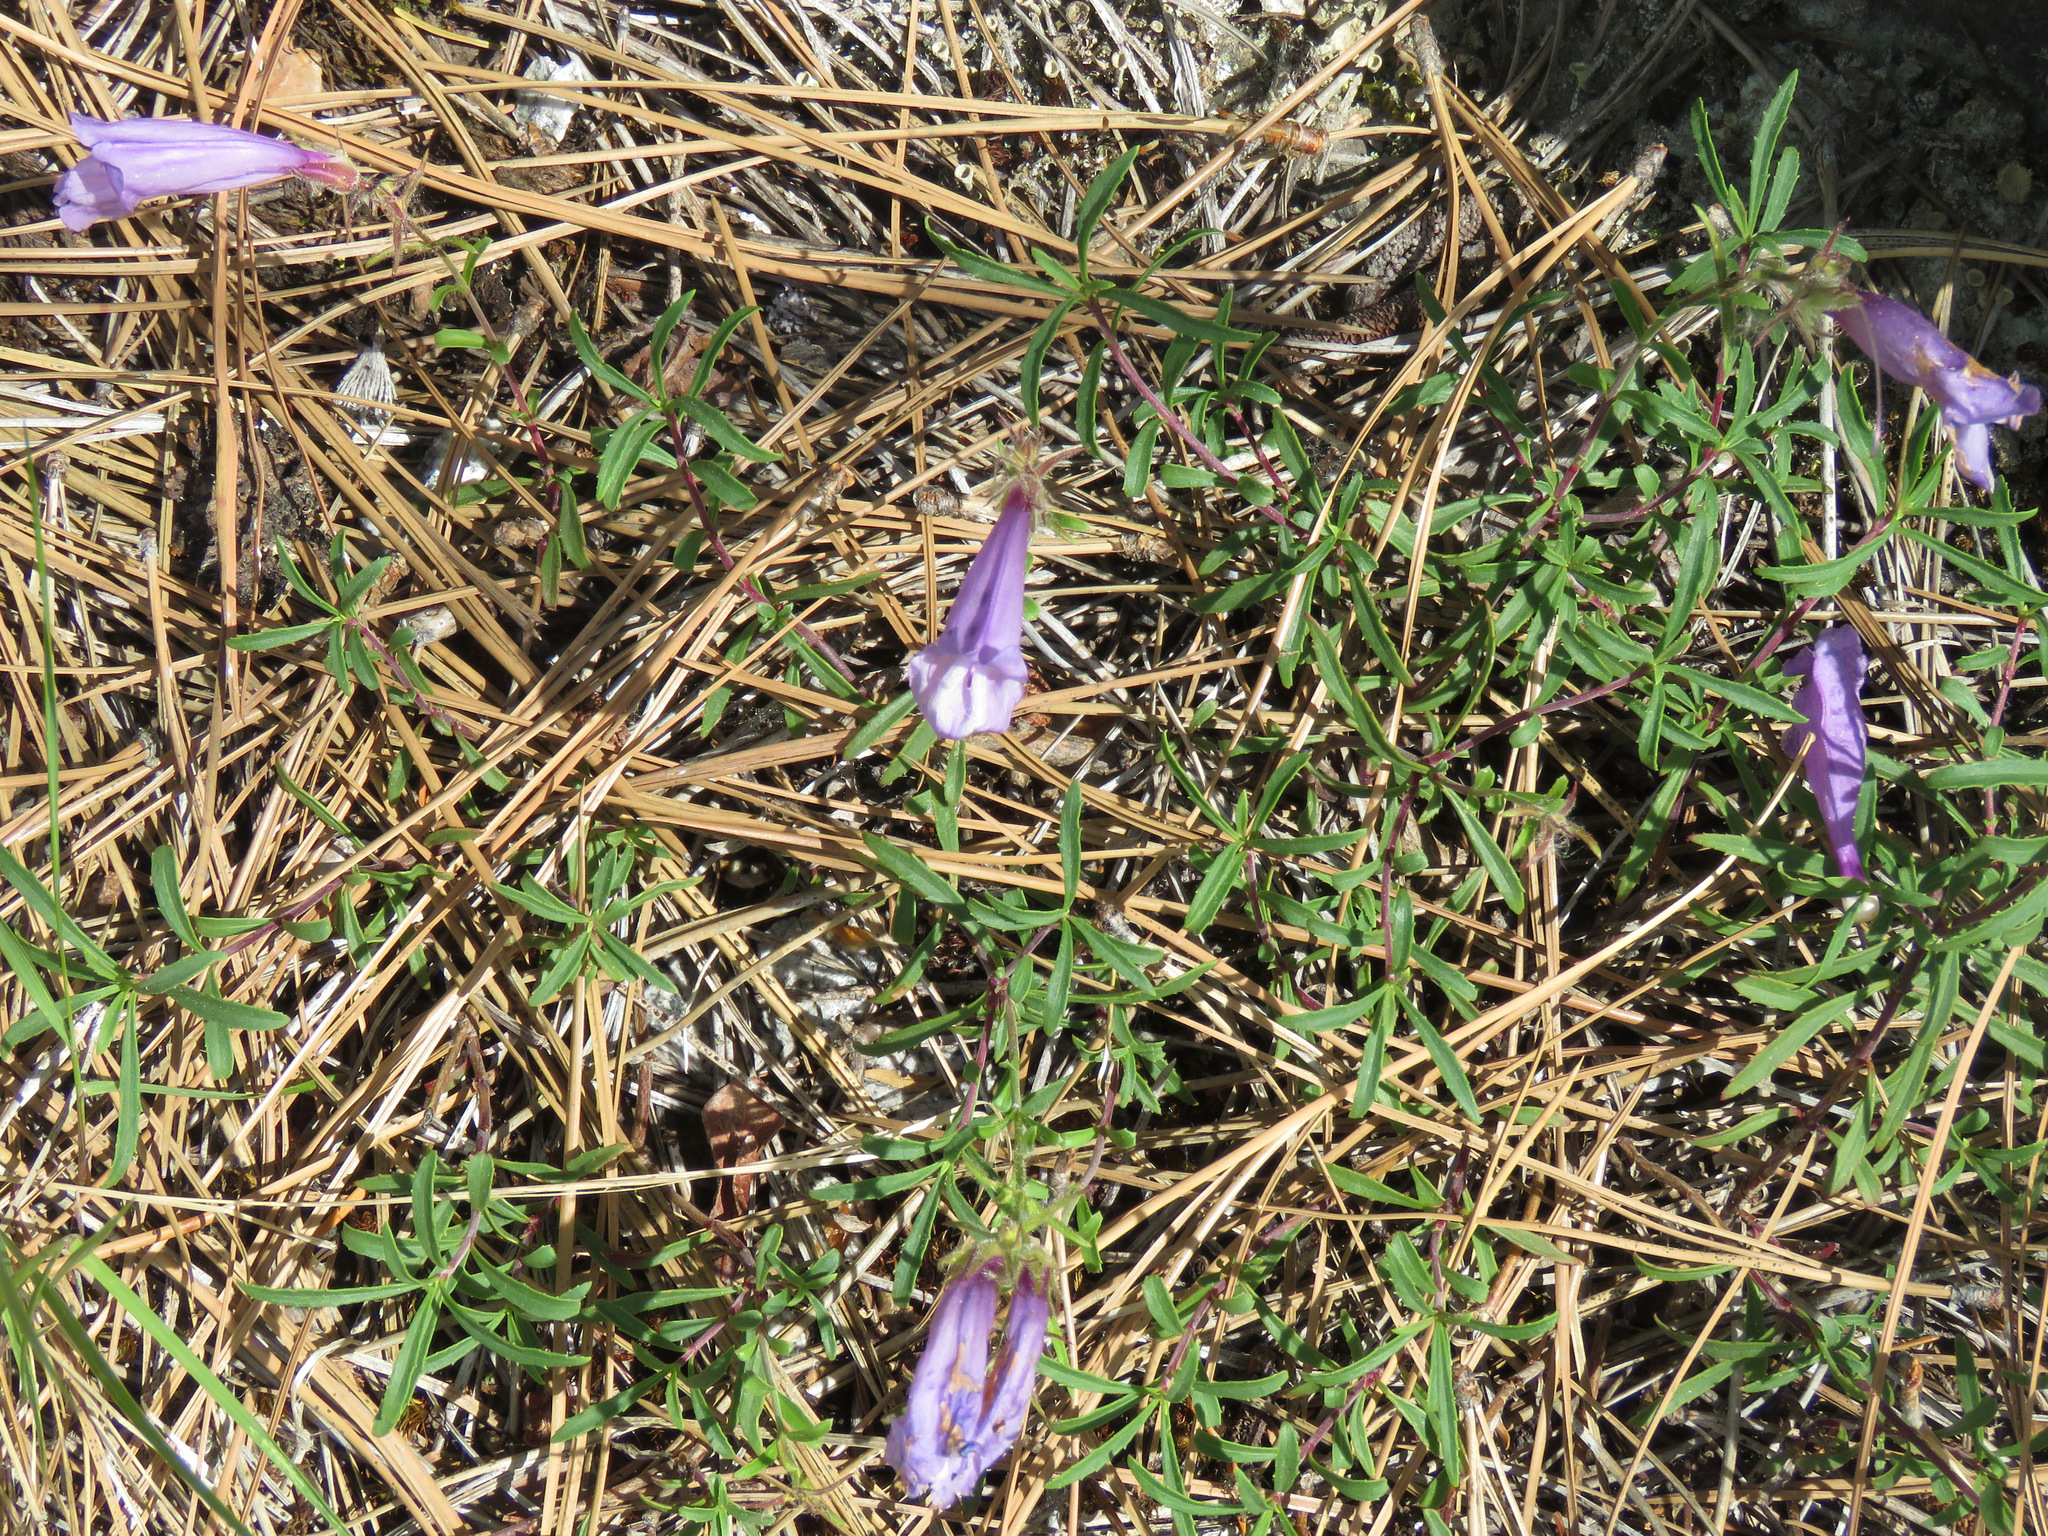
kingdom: Plantae
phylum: Tracheophyta
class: Magnoliopsida
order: Lamiales
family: Plantaginaceae
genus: Penstemon
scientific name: Penstemon fruticosus
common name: Bush penstemon
